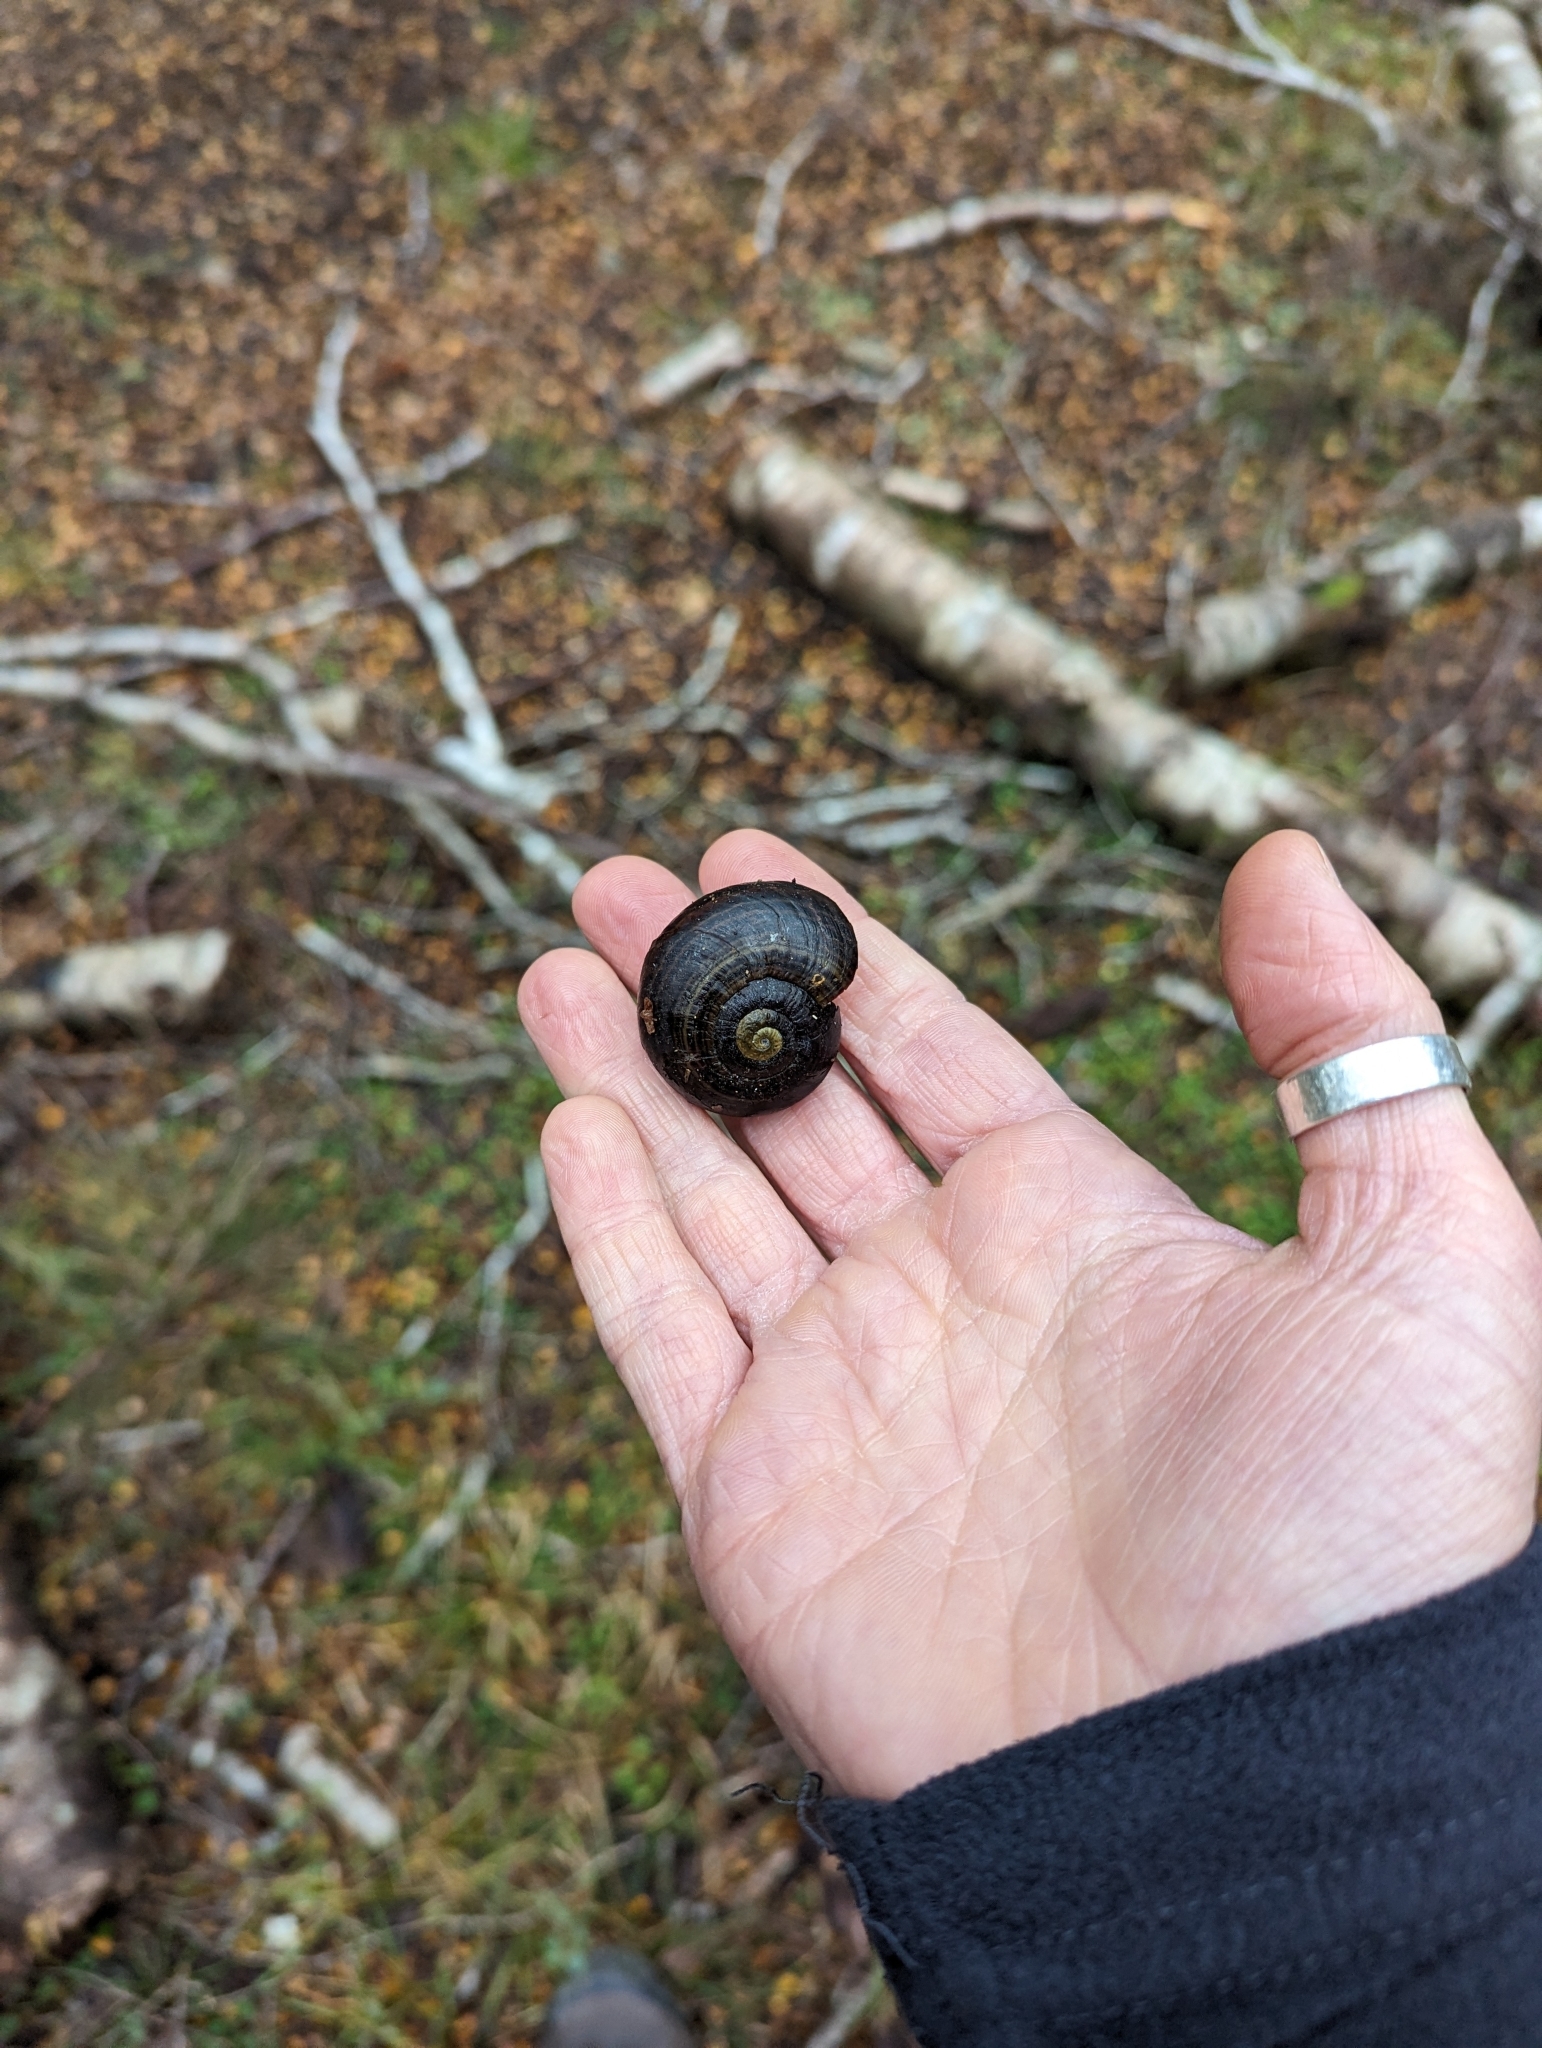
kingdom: Animalia
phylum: Mollusca
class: Gastropoda
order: Stylommatophora
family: Rhytididae
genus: Powelliphanta
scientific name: Powelliphanta hochstetteri
